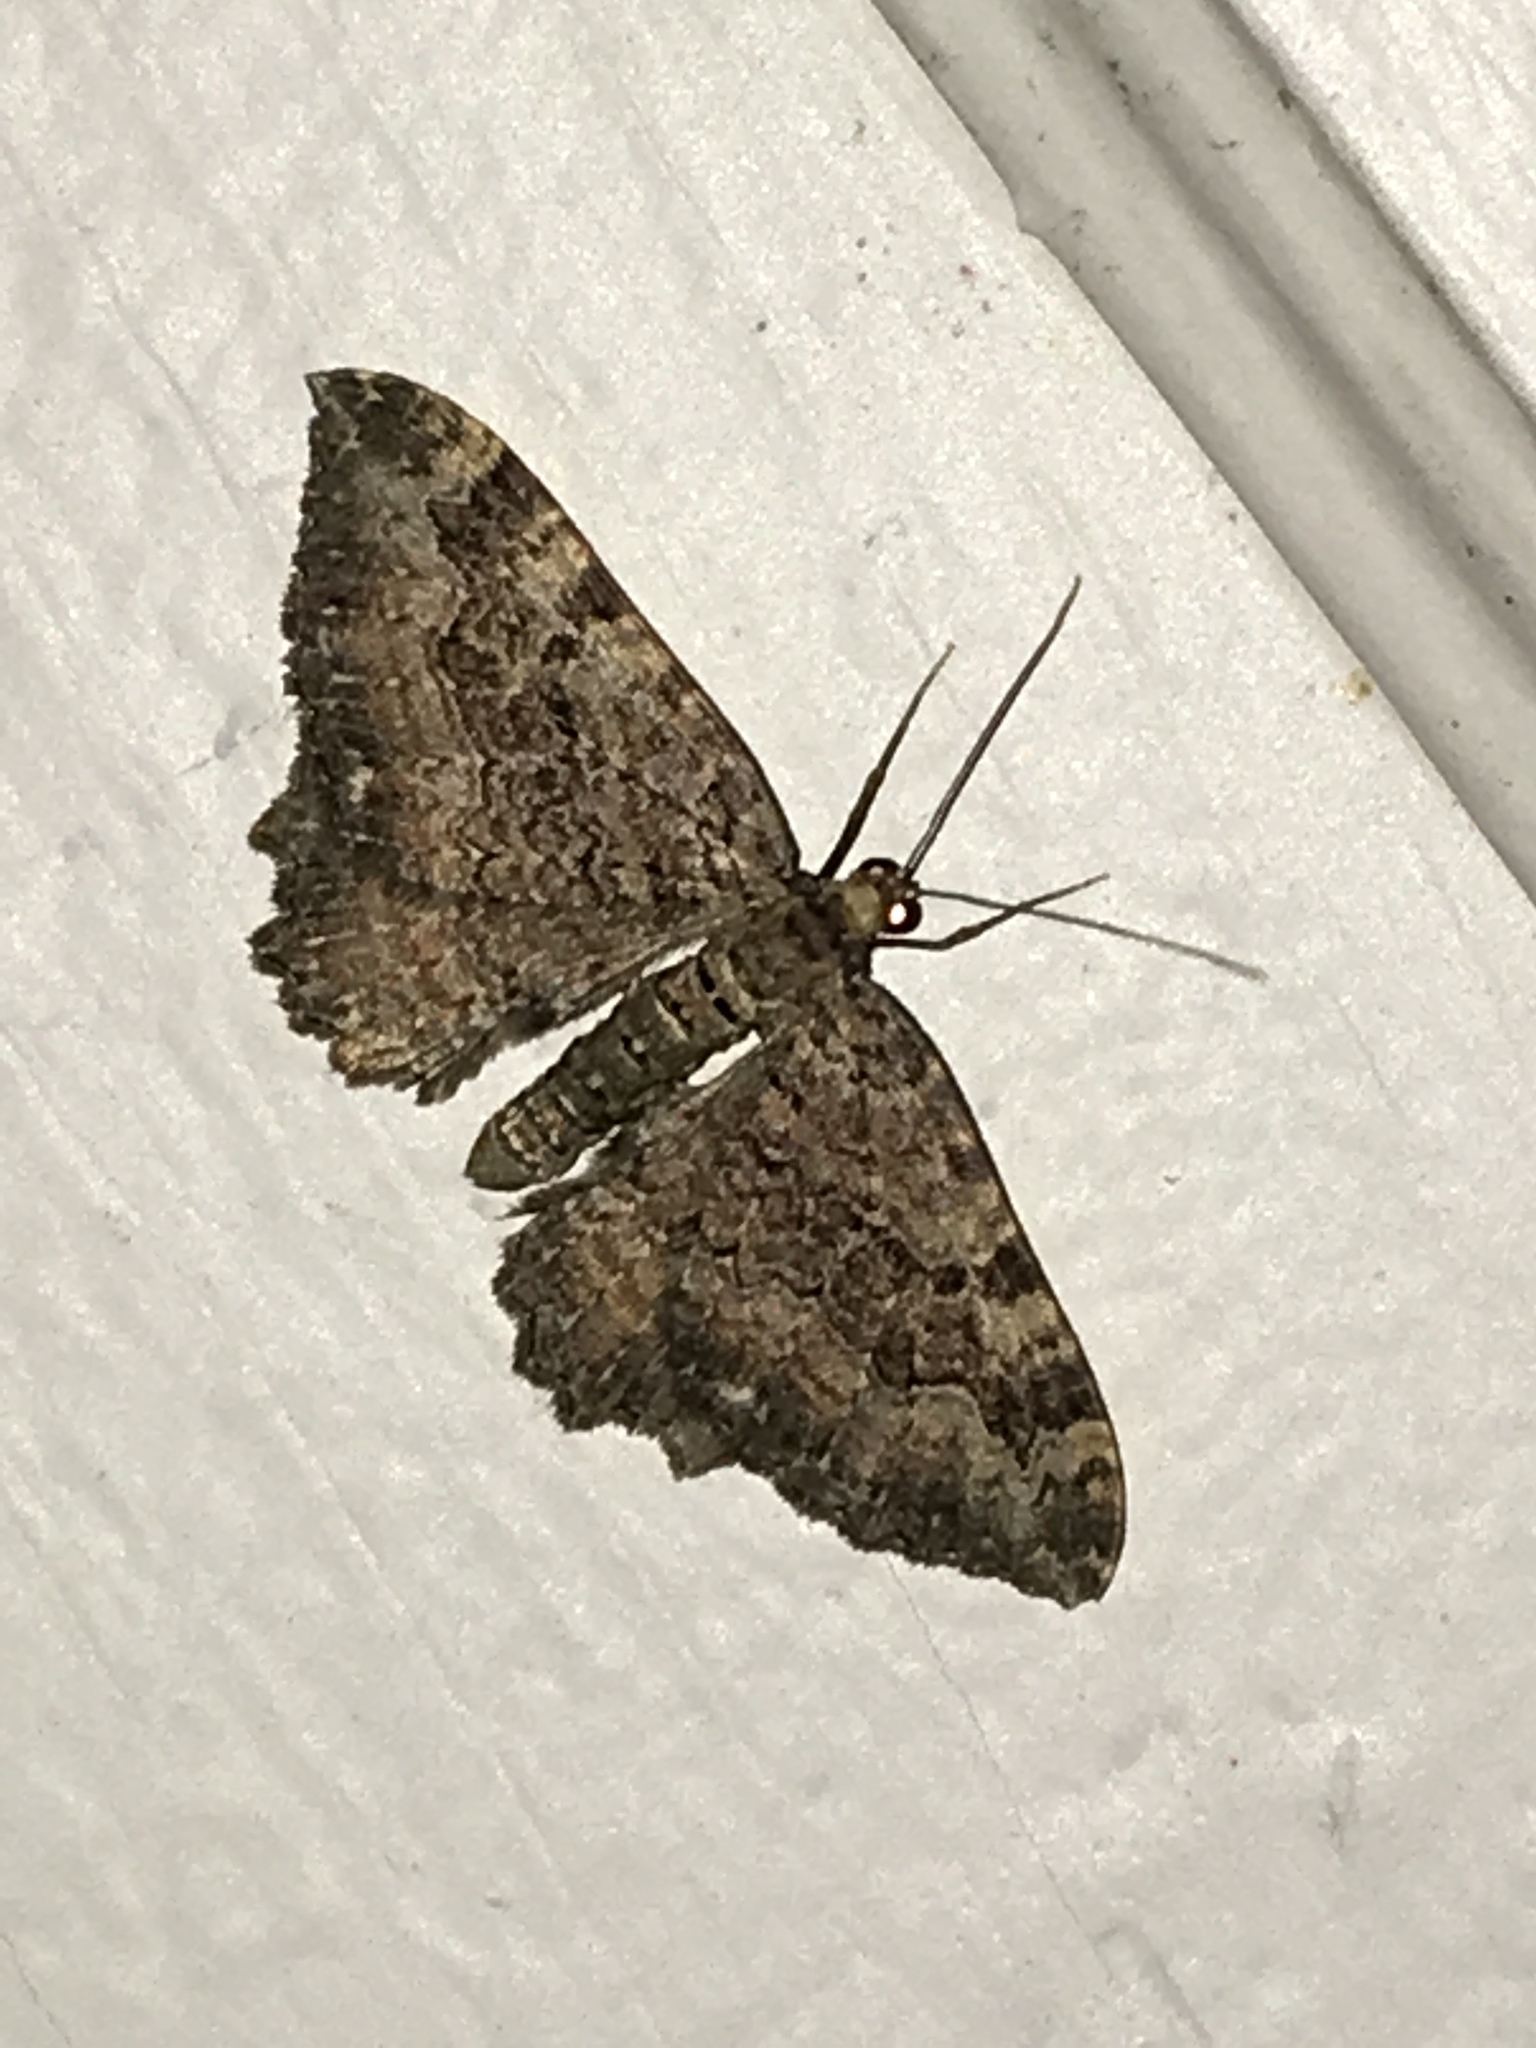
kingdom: Animalia
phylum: Arthropoda
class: Insecta
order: Lepidoptera
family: Geometridae
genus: Rheumaptera
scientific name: Rheumaptera
